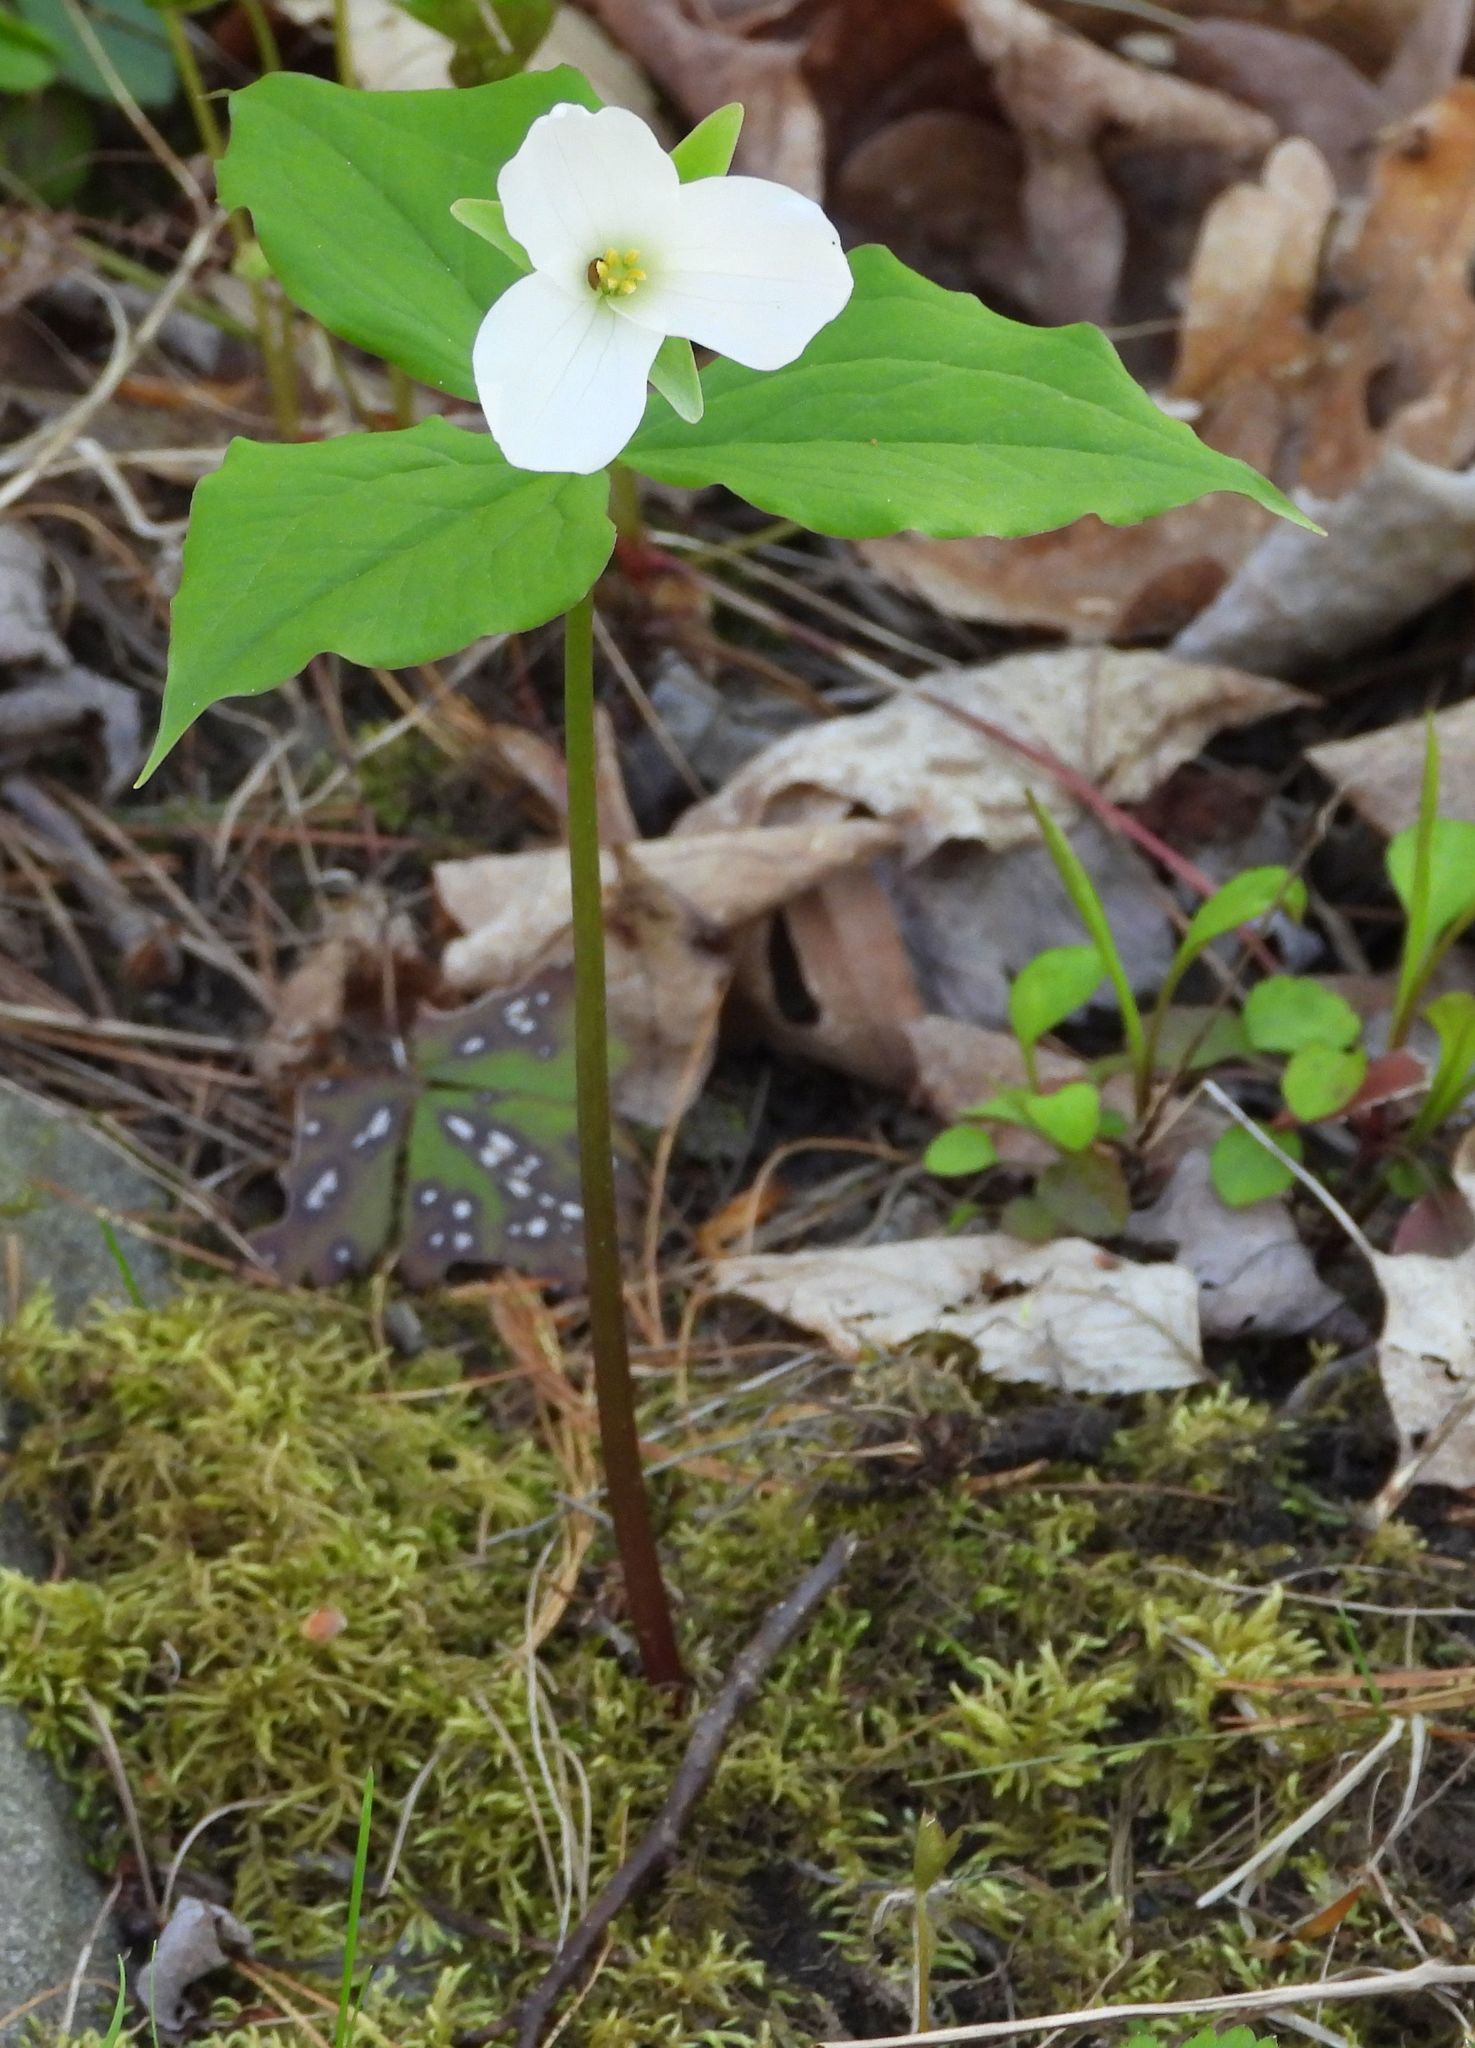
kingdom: Plantae
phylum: Tracheophyta
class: Liliopsida
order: Liliales
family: Melanthiaceae
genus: Trillium
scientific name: Trillium grandiflorum
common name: Great white trillium
